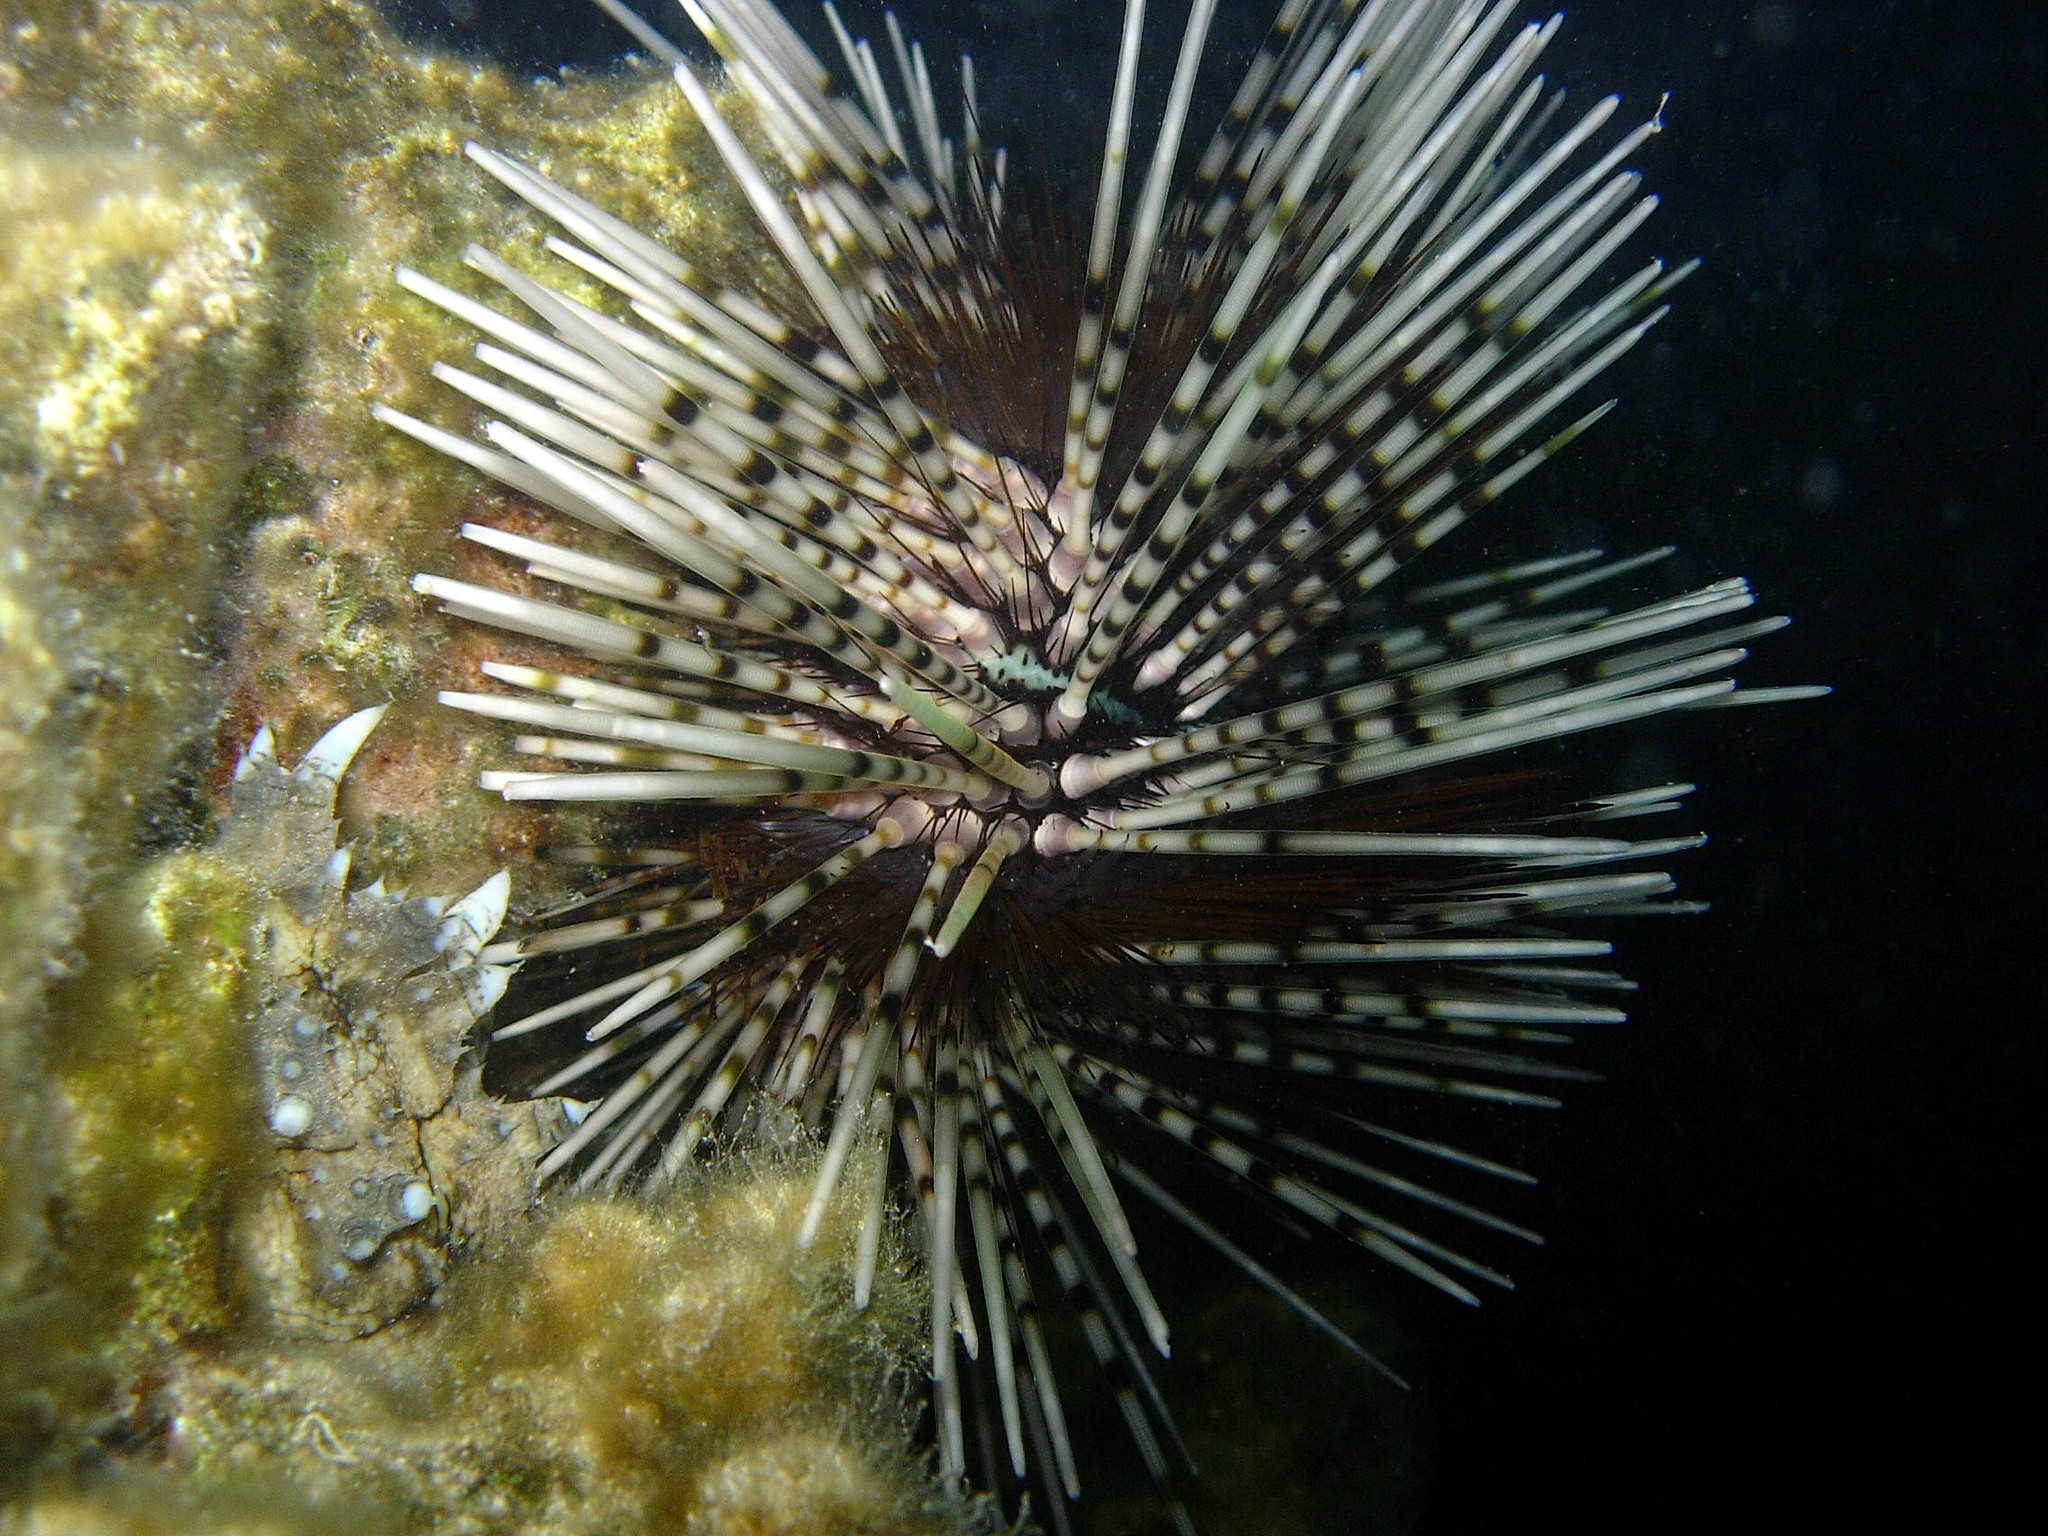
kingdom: Animalia
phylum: Echinodermata
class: Echinoidea
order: Diadematoida
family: Diadematidae
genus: Echinothrix
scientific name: Echinothrix calamaris
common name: Banded sea urchin
